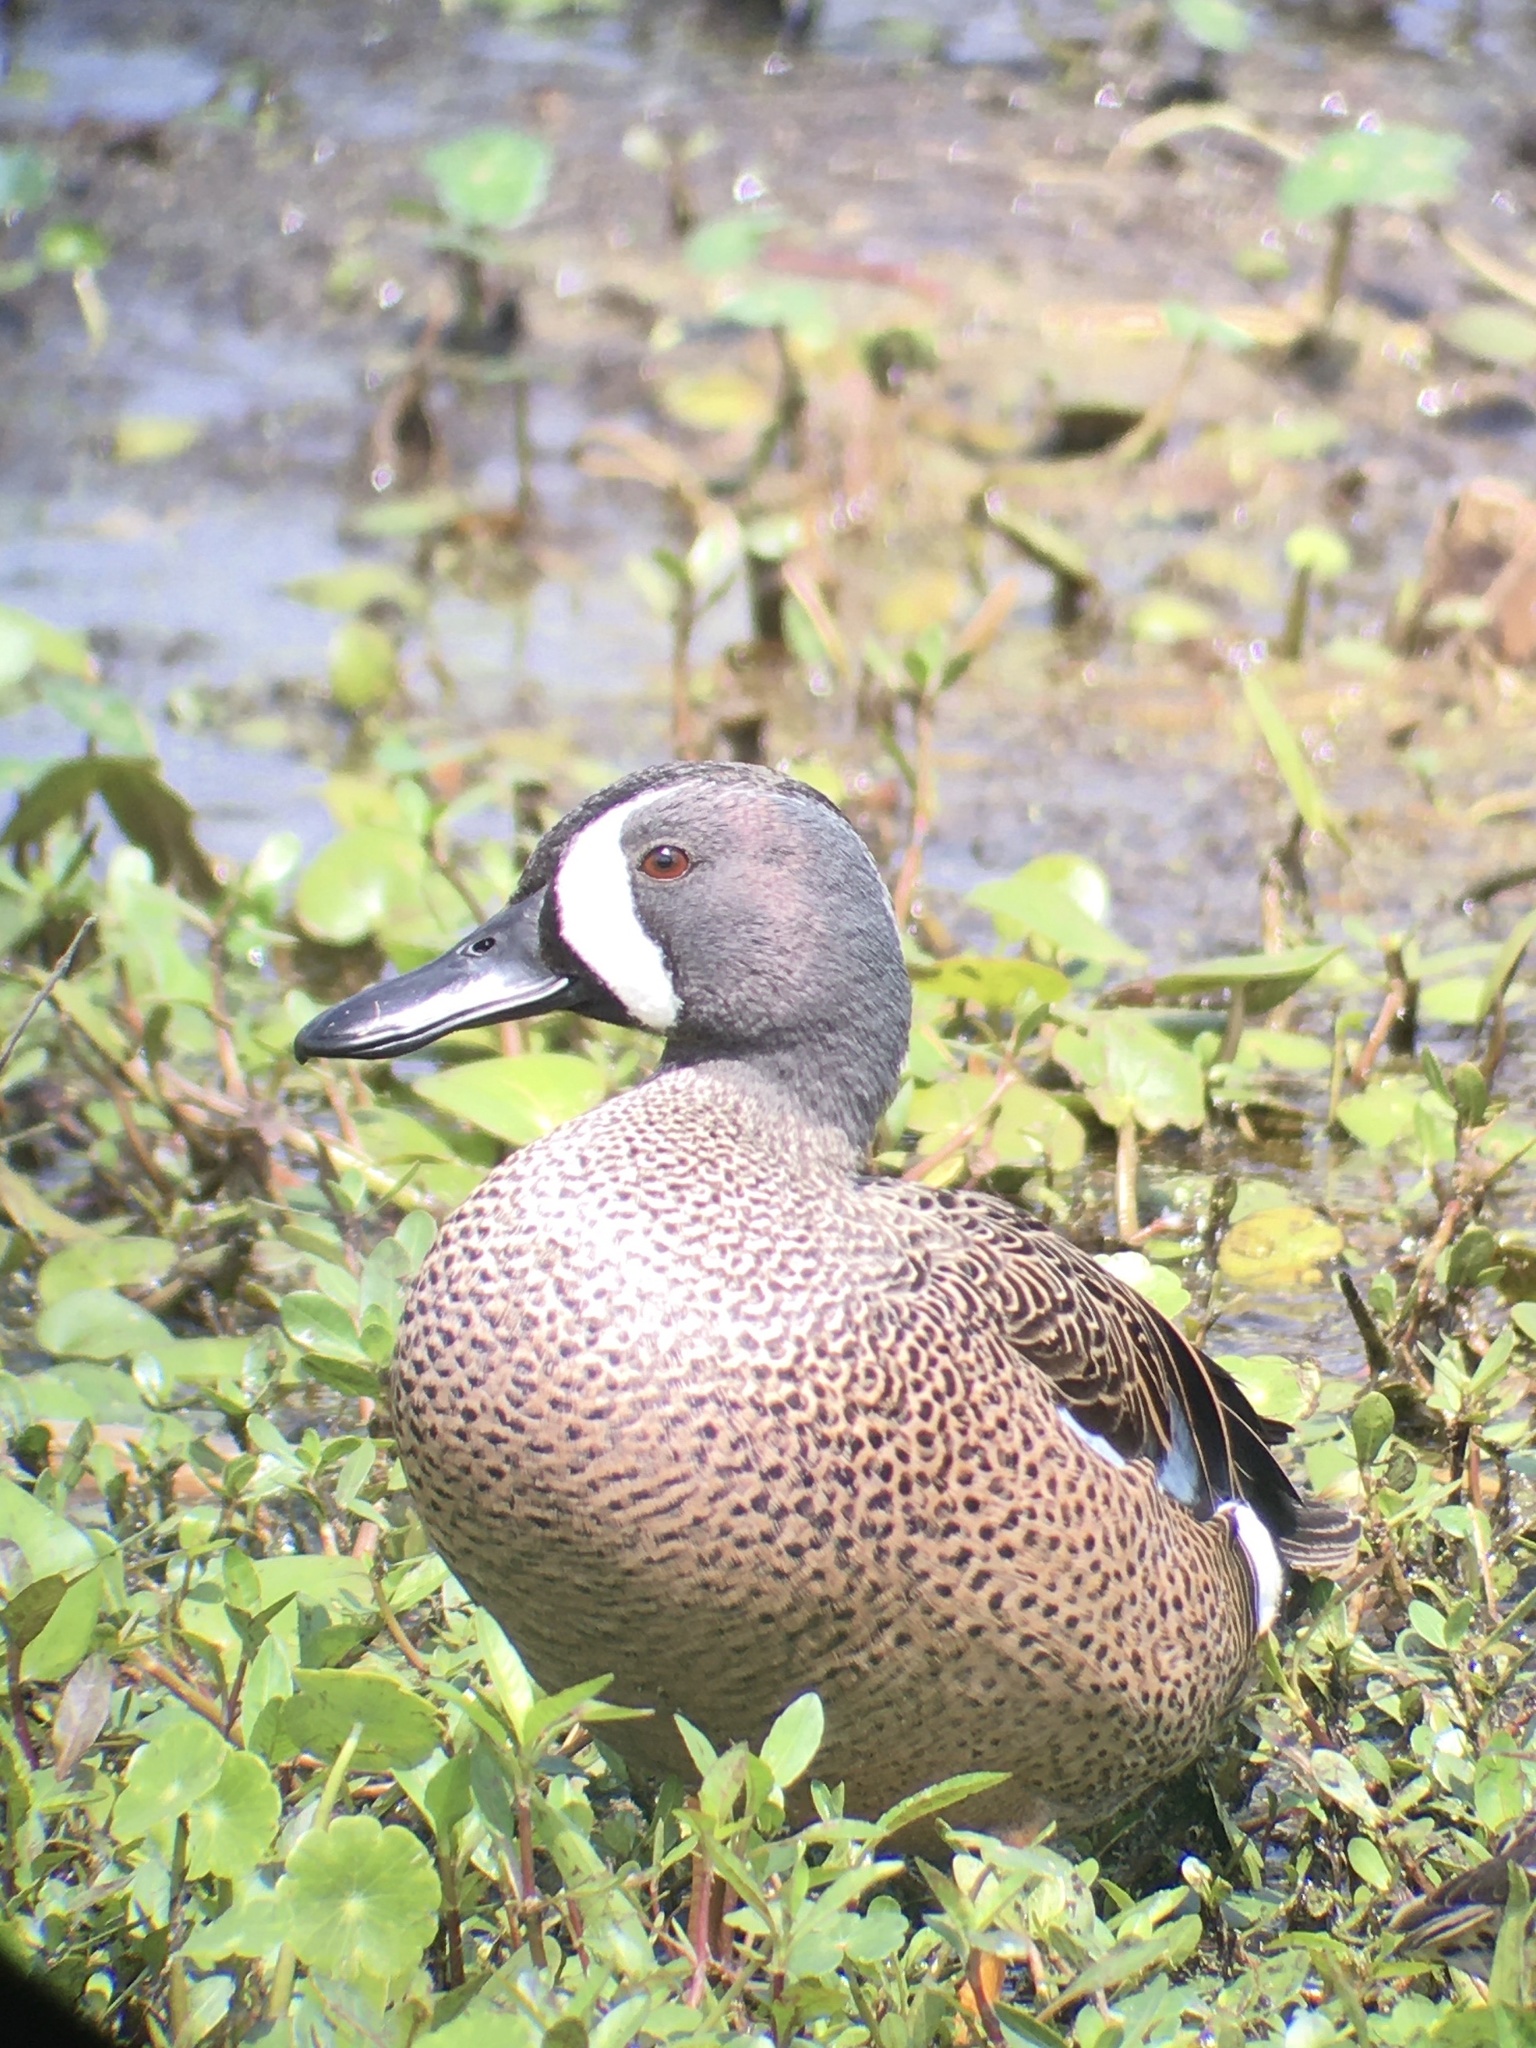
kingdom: Animalia
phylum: Chordata
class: Aves
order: Anseriformes
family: Anatidae
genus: Spatula
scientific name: Spatula discors
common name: Blue-winged teal
